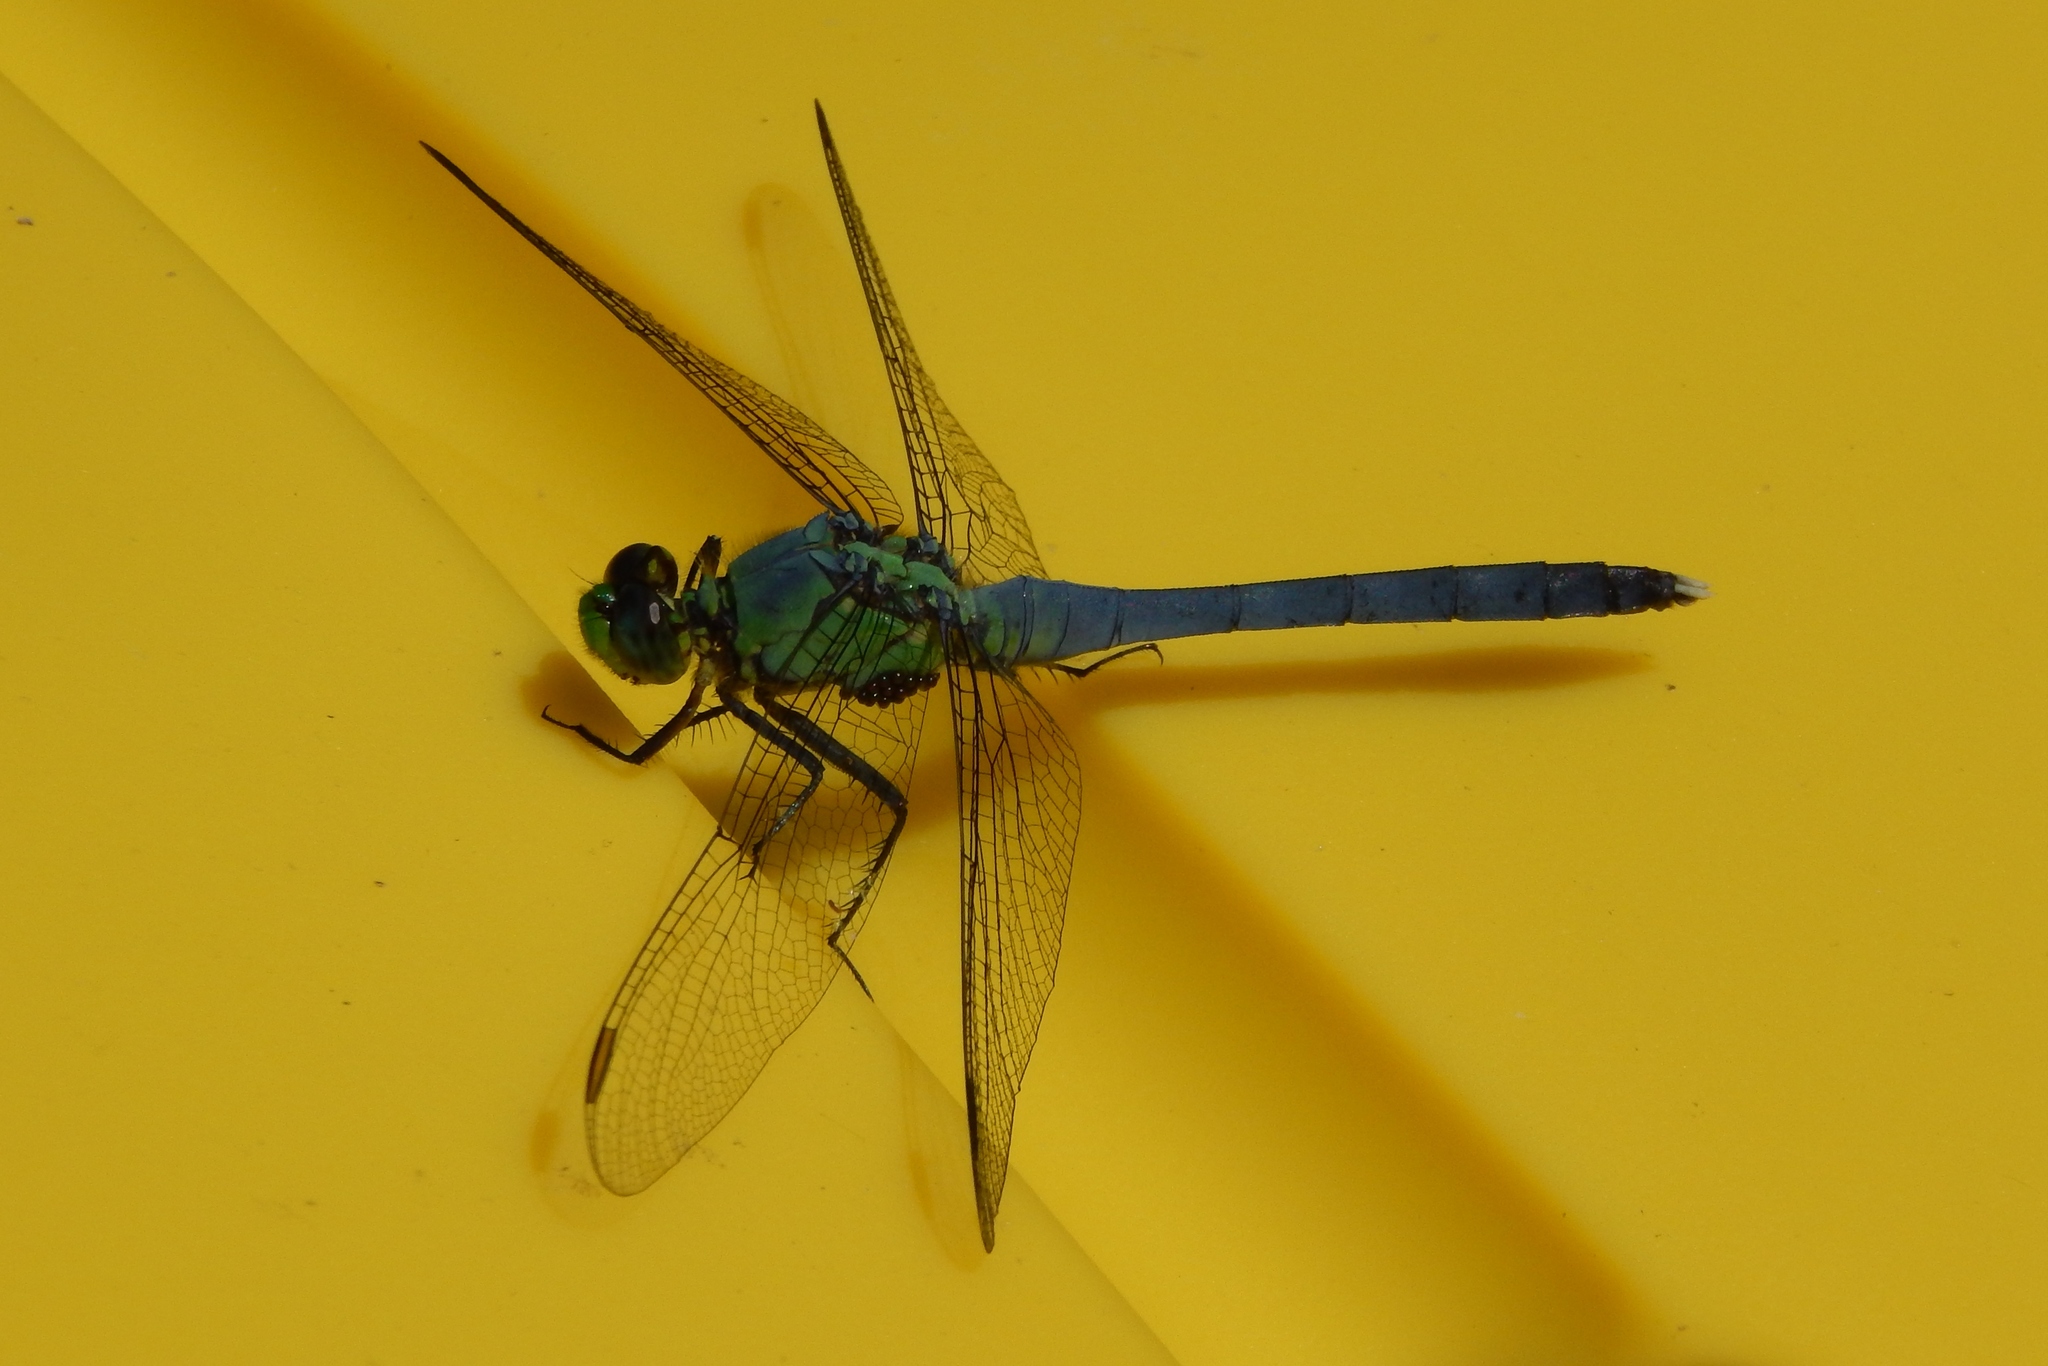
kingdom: Animalia
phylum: Arthropoda
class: Insecta
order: Odonata
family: Libellulidae
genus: Erythemis
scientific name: Erythemis simplicicollis
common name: Eastern pondhawk
